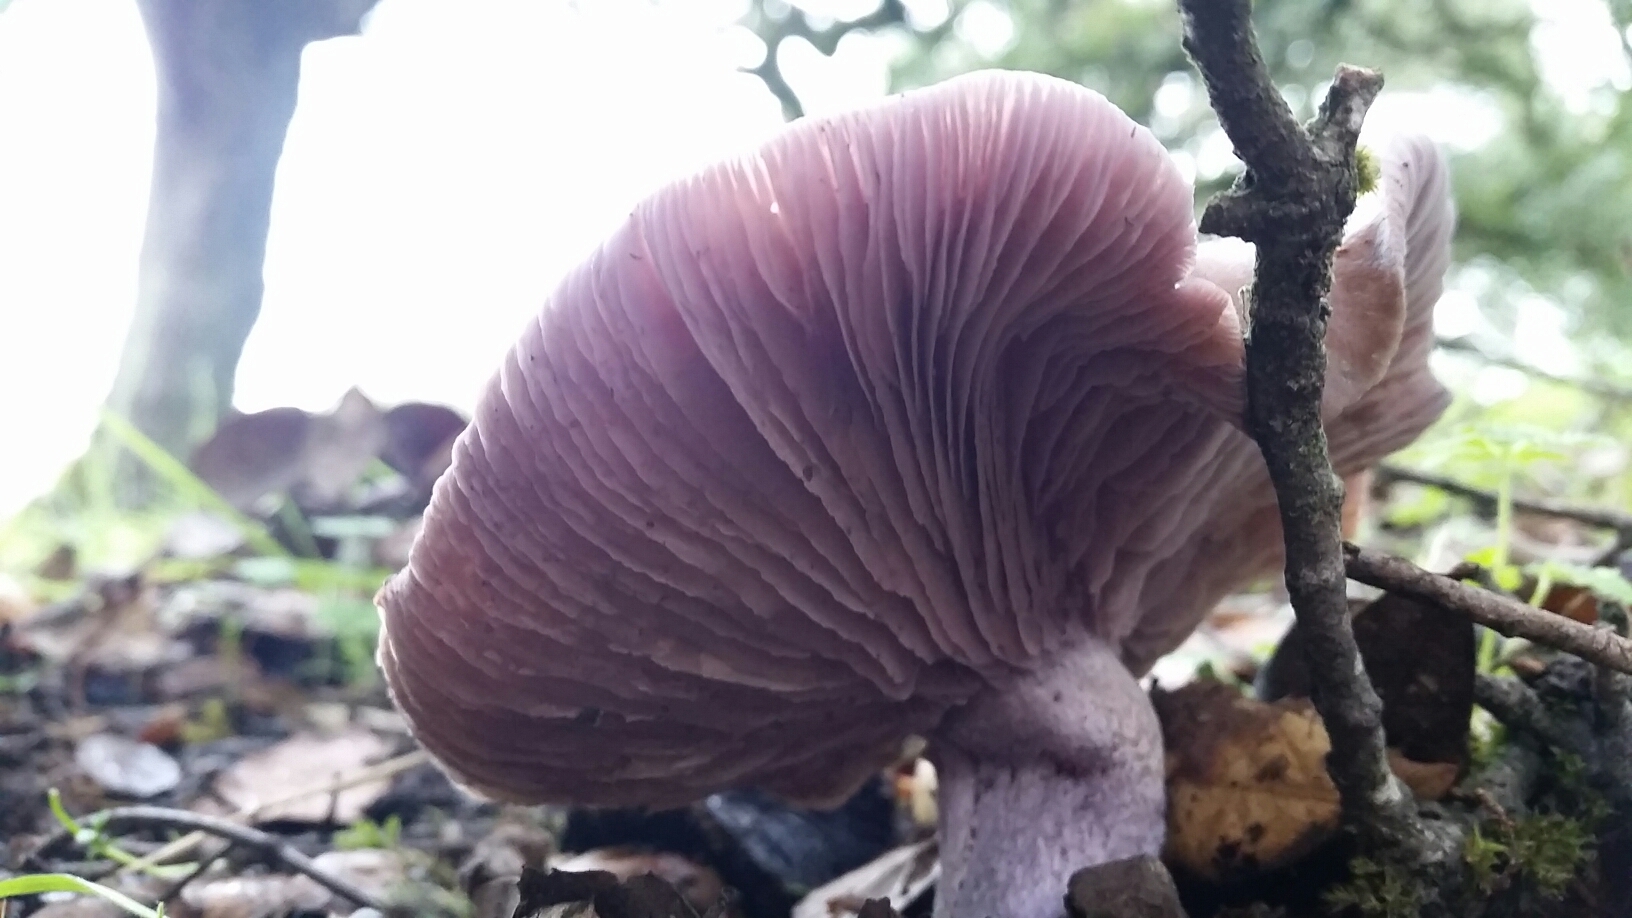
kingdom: Fungi
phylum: Basidiomycota
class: Agaricomycetes
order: Agaricales
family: Tricholomataceae
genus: Collybia
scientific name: Collybia
